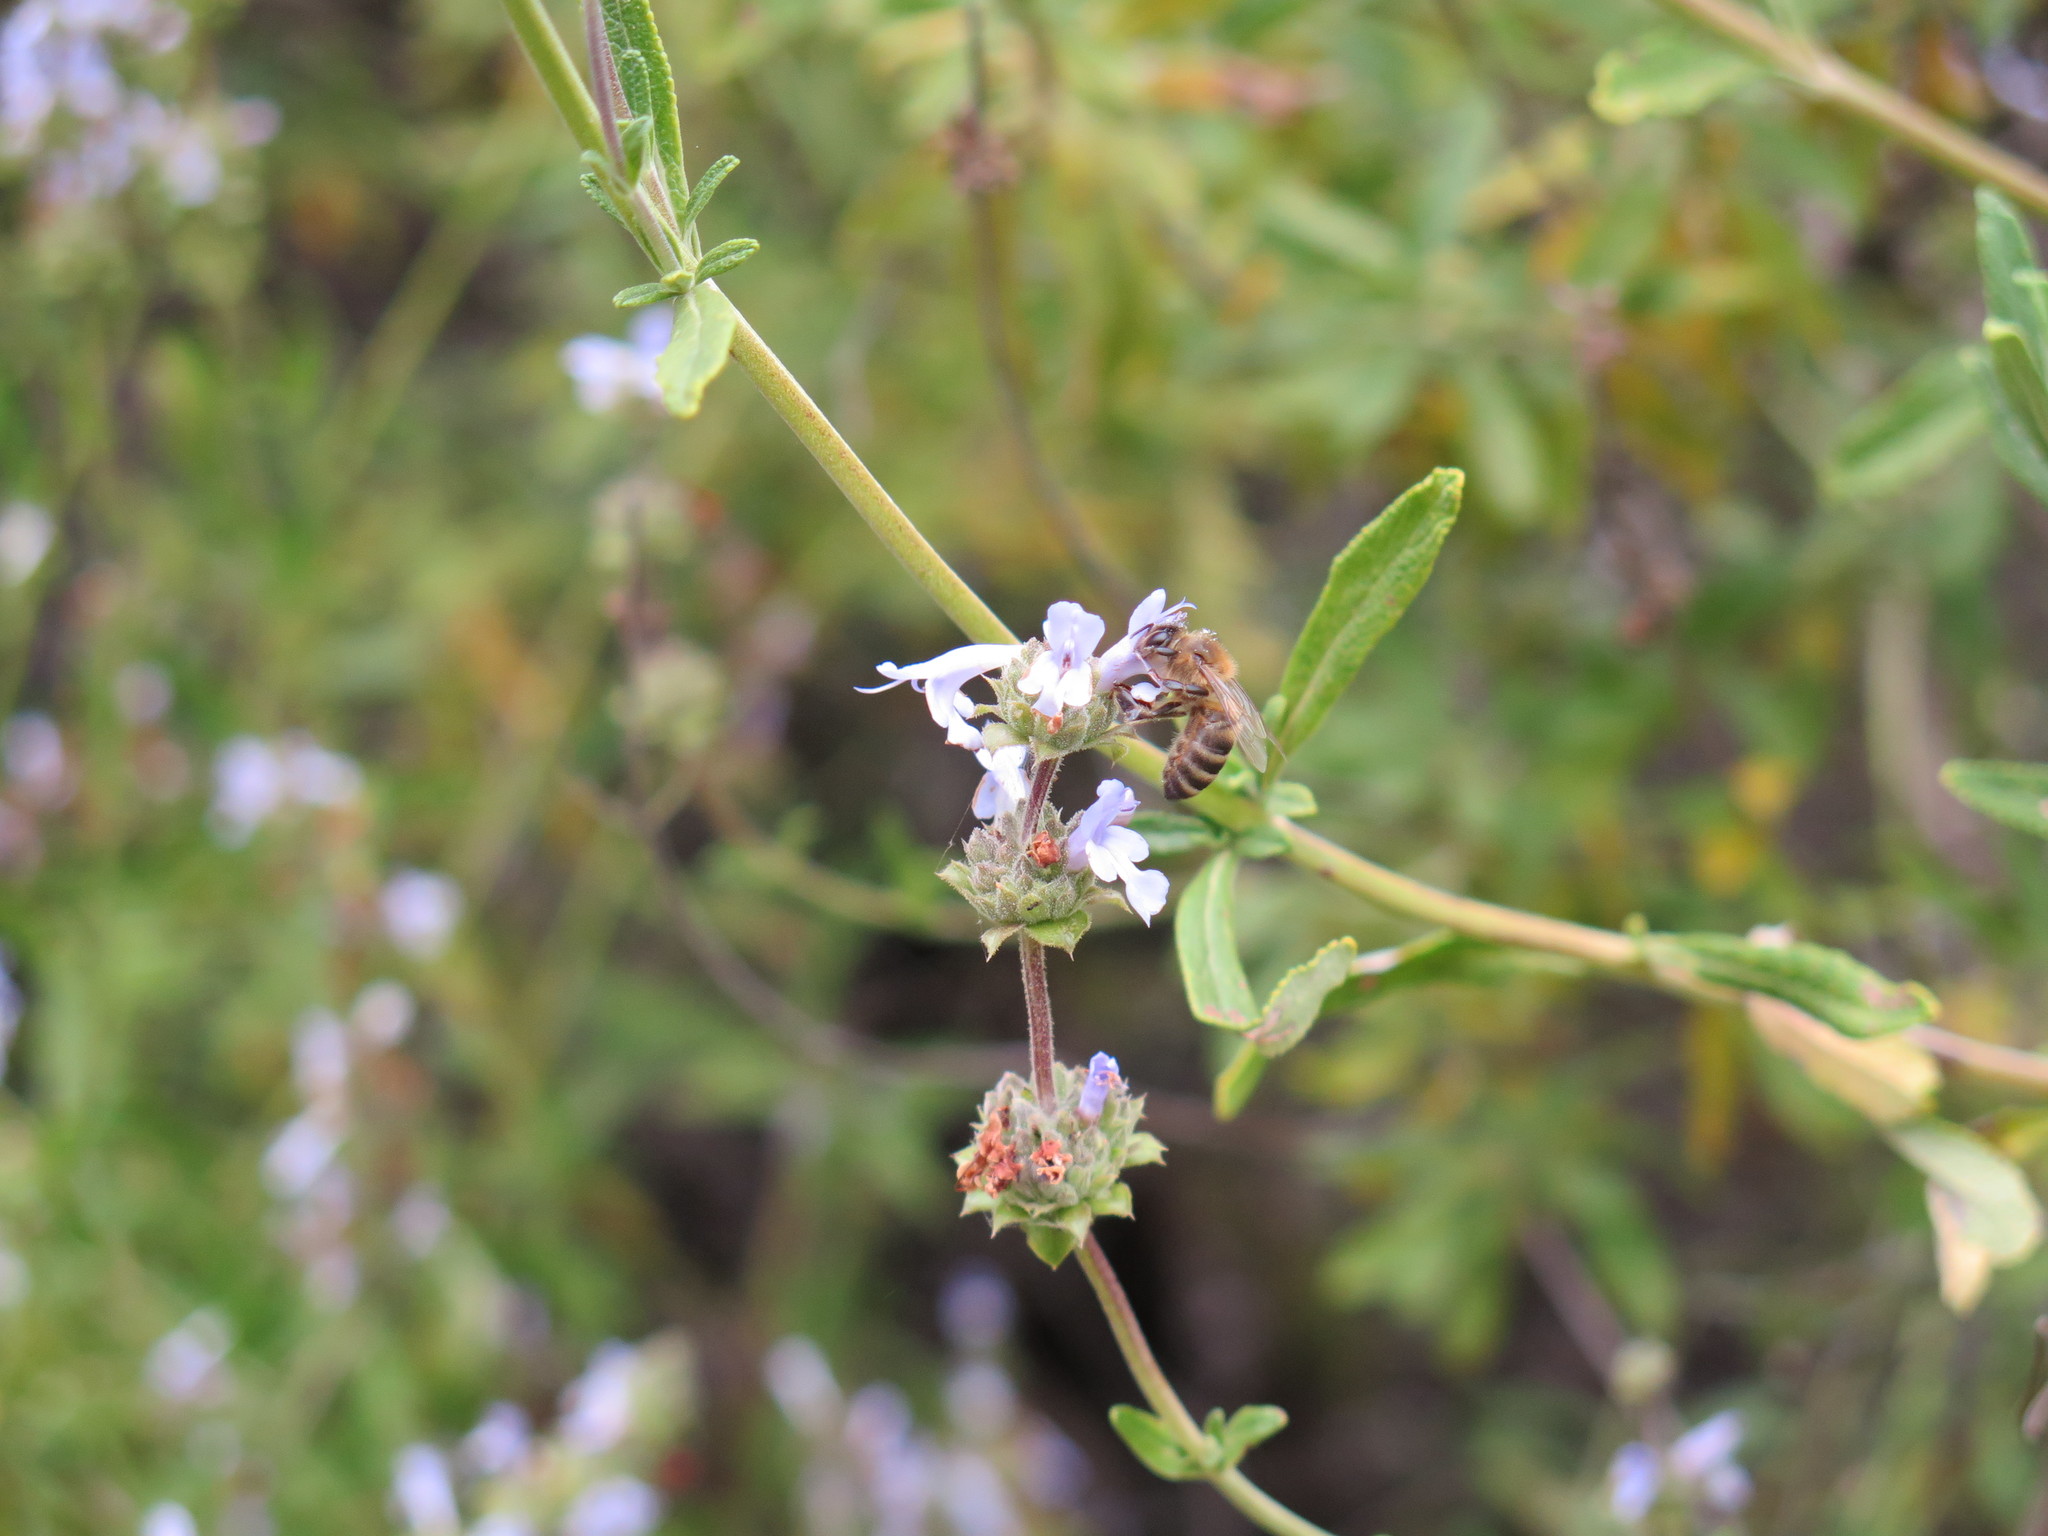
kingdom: Animalia
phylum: Arthropoda
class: Insecta
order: Hymenoptera
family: Apidae
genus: Apis
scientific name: Apis mellifera
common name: Honey bee
